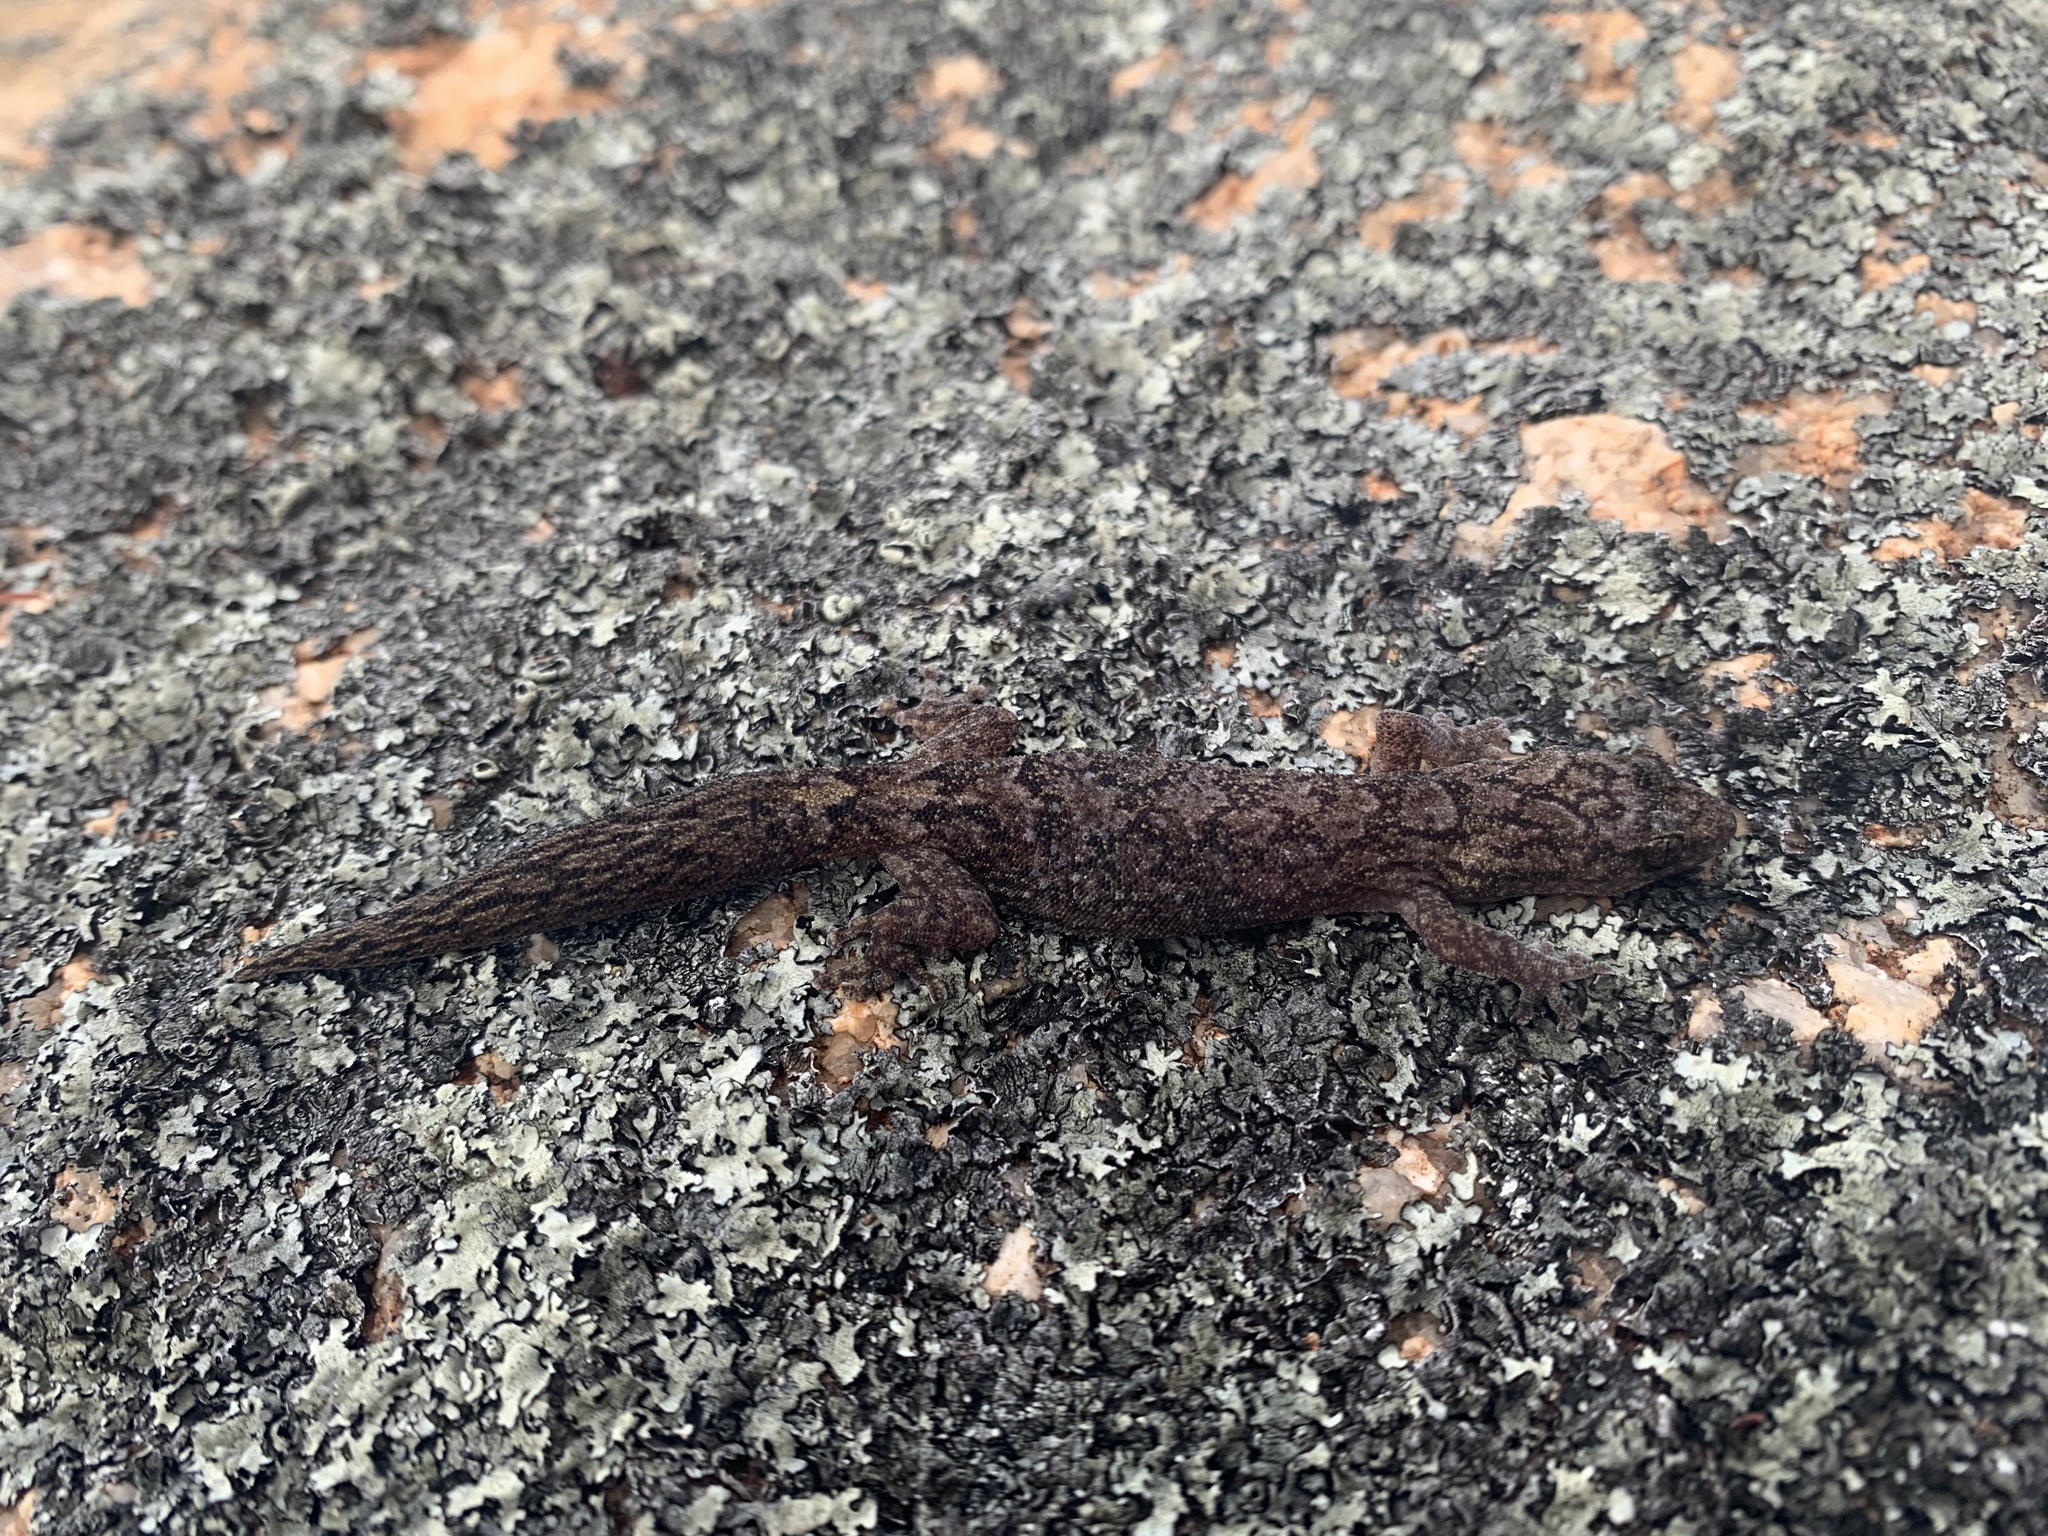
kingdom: Animalia
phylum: Chordata
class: Squamata
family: Gekkonidae
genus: Christinus
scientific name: Christinus marmoratus
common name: Marbled gecko
